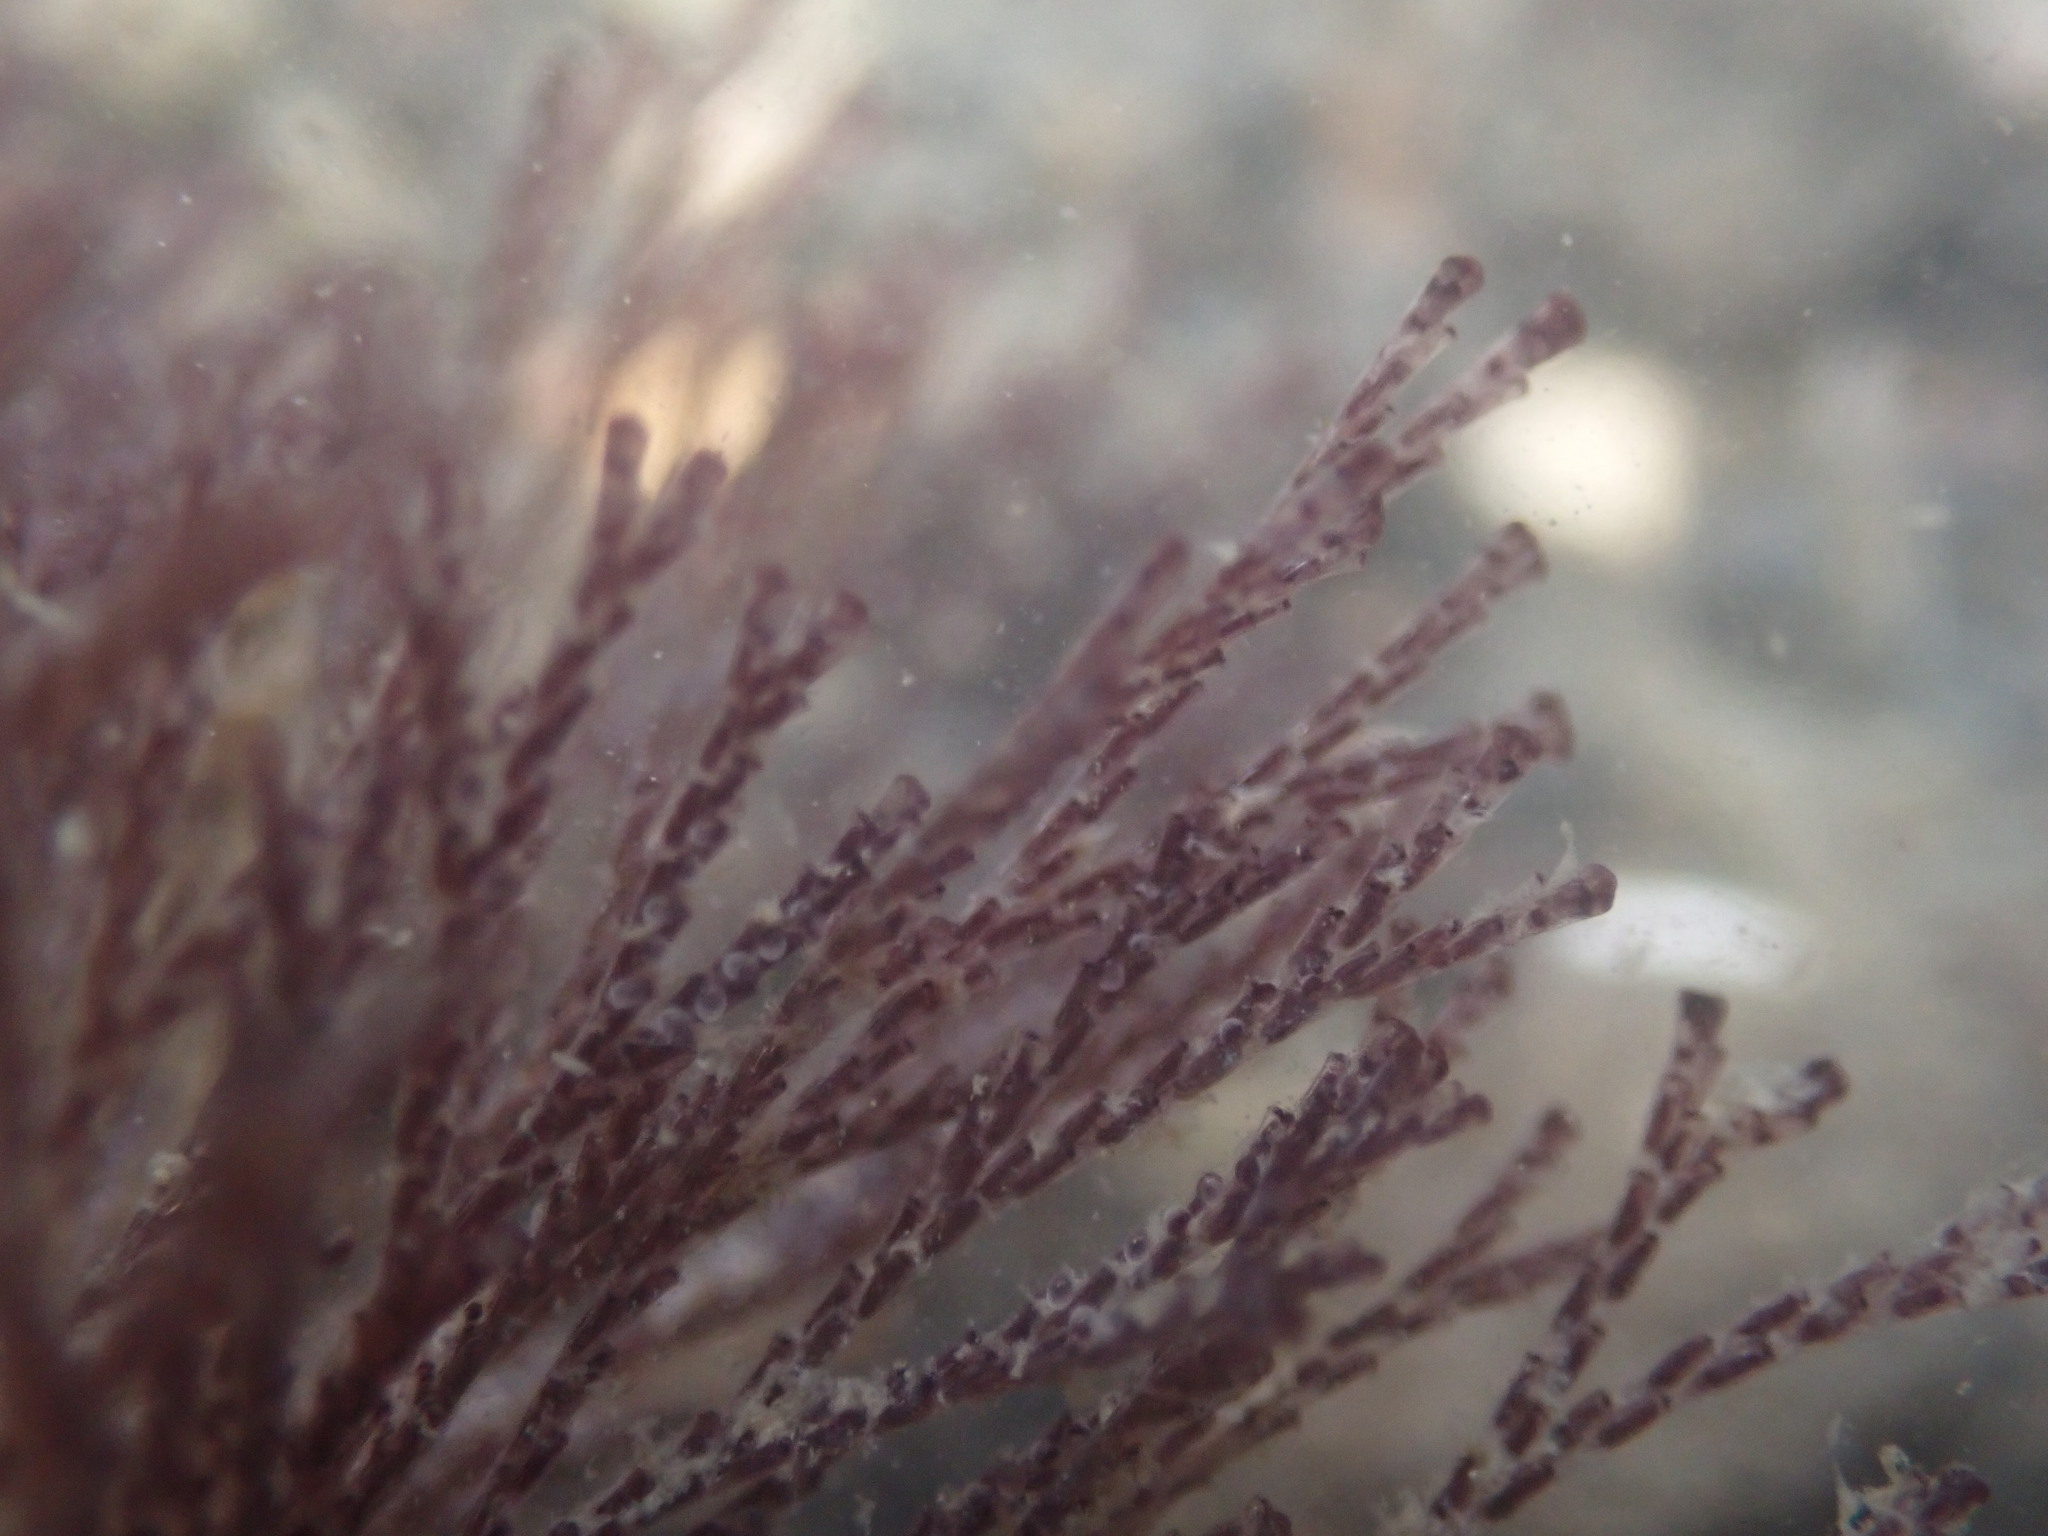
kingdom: Animalia
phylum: Bryozoa
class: Gymnolaemata
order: Cheilostomatida
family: Bugulidae
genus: Bugula
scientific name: Bugula neritina
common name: Brown bryozoan
